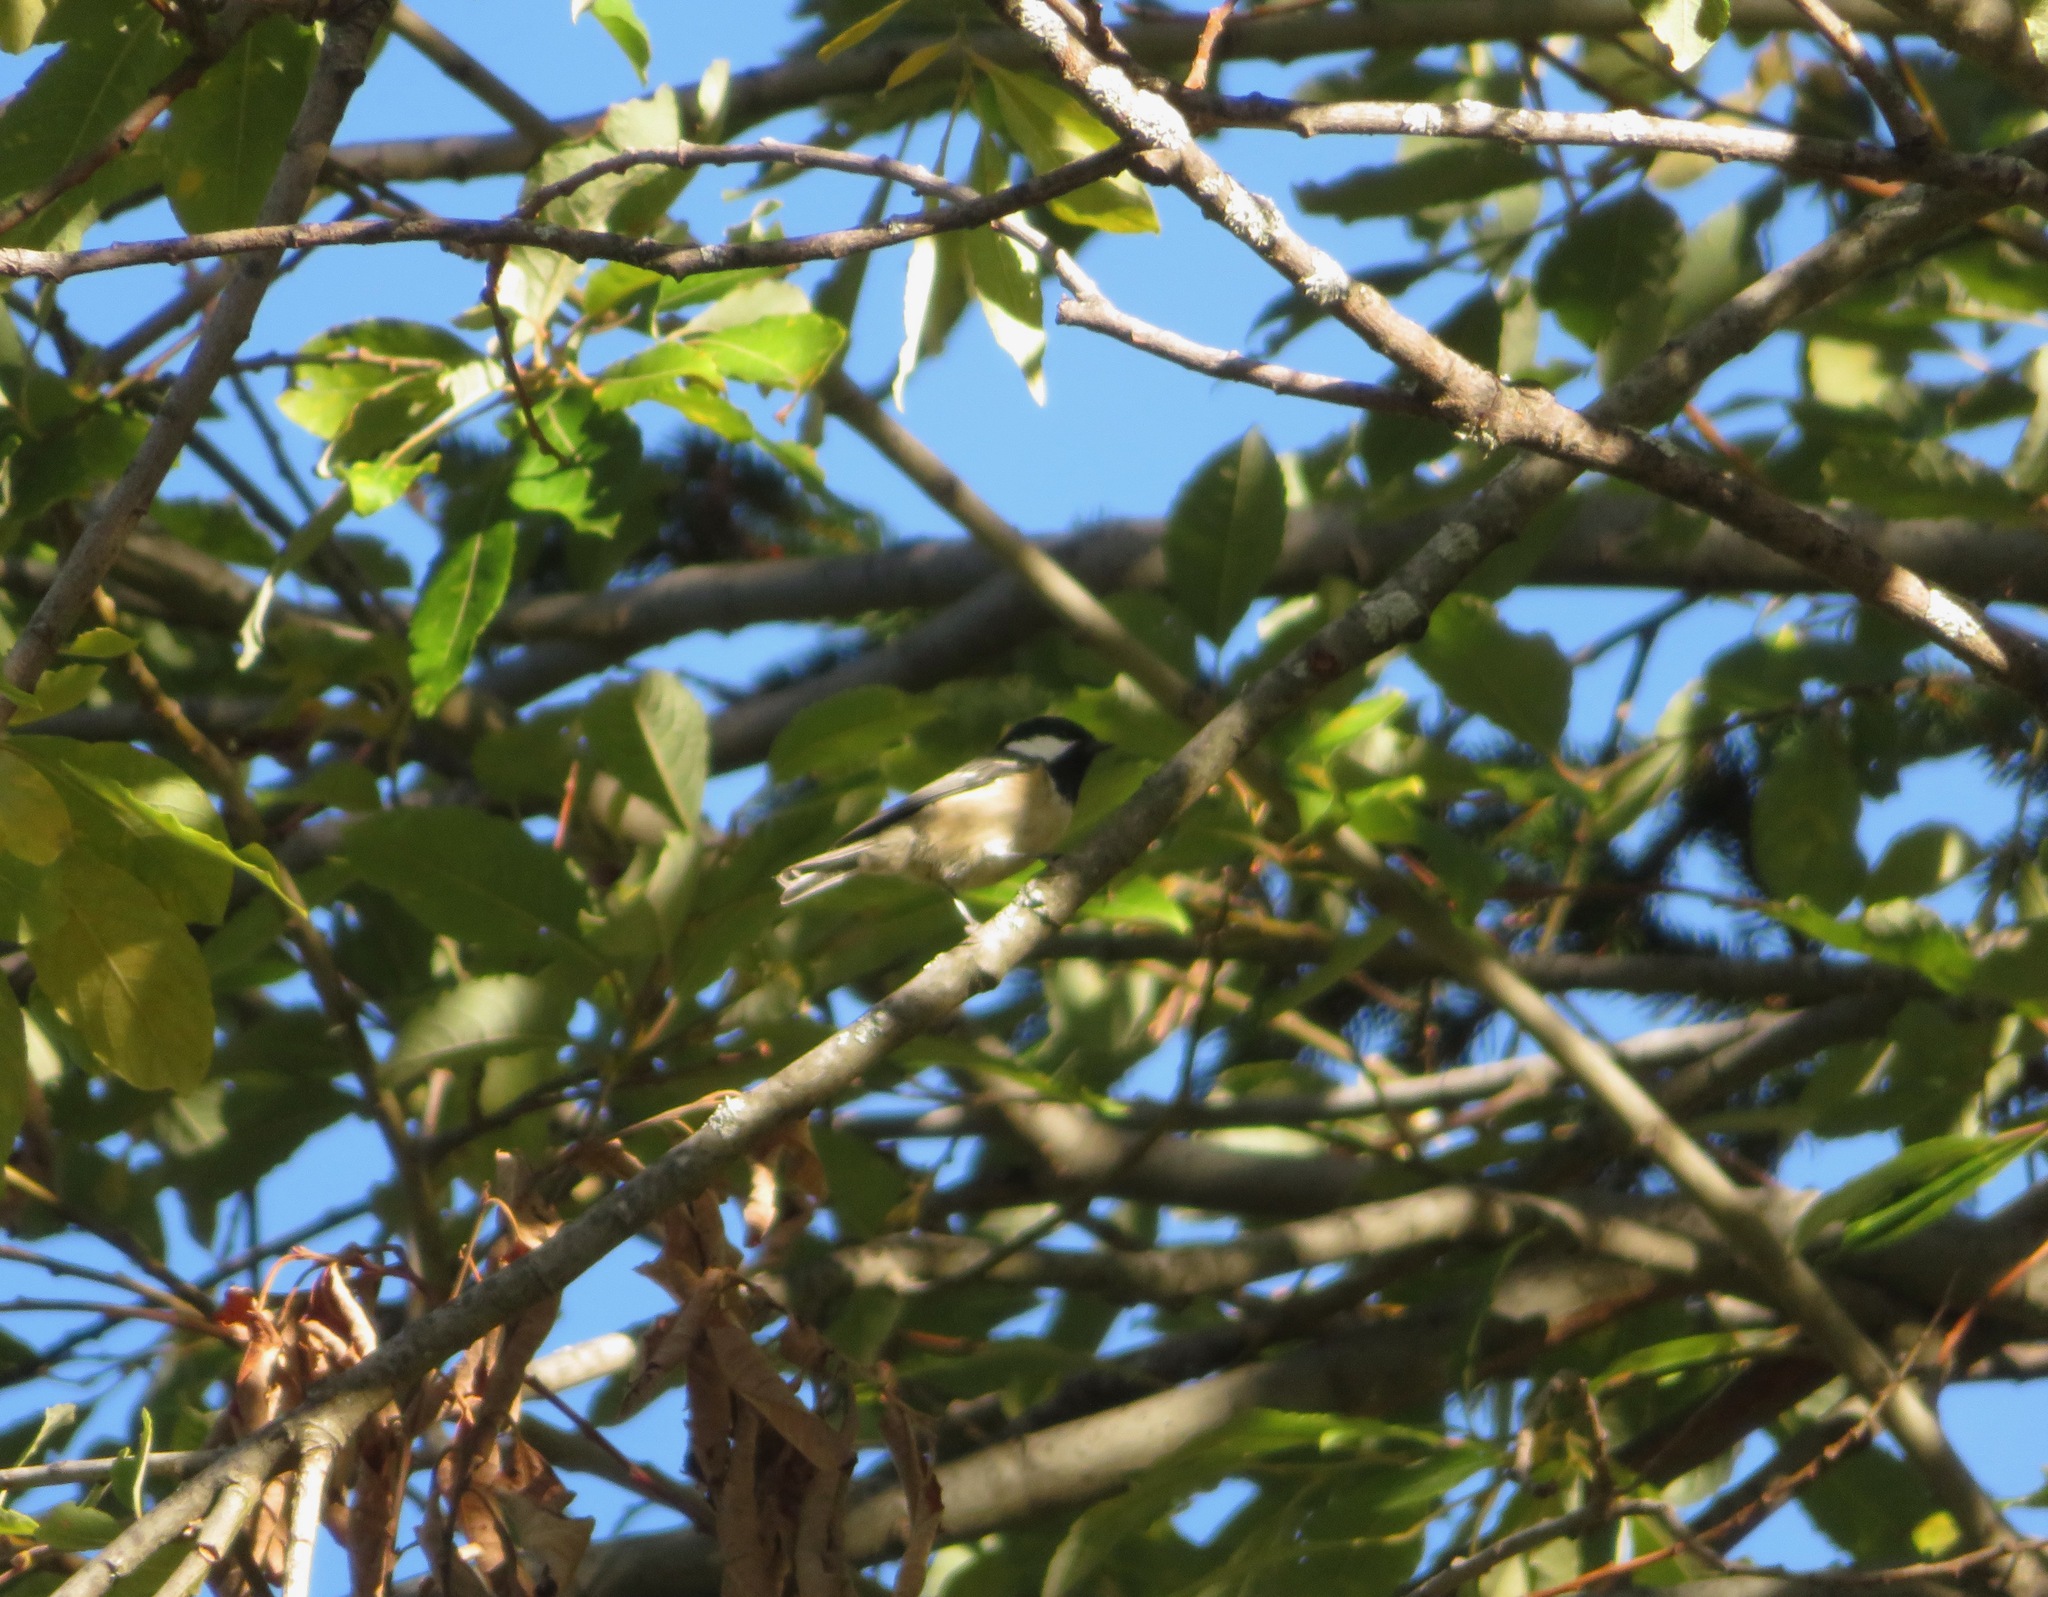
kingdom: Animalia
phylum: Chordata
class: Aves
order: Passeriformes
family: Paridae
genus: Parus
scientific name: Parus major
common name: Great tit
